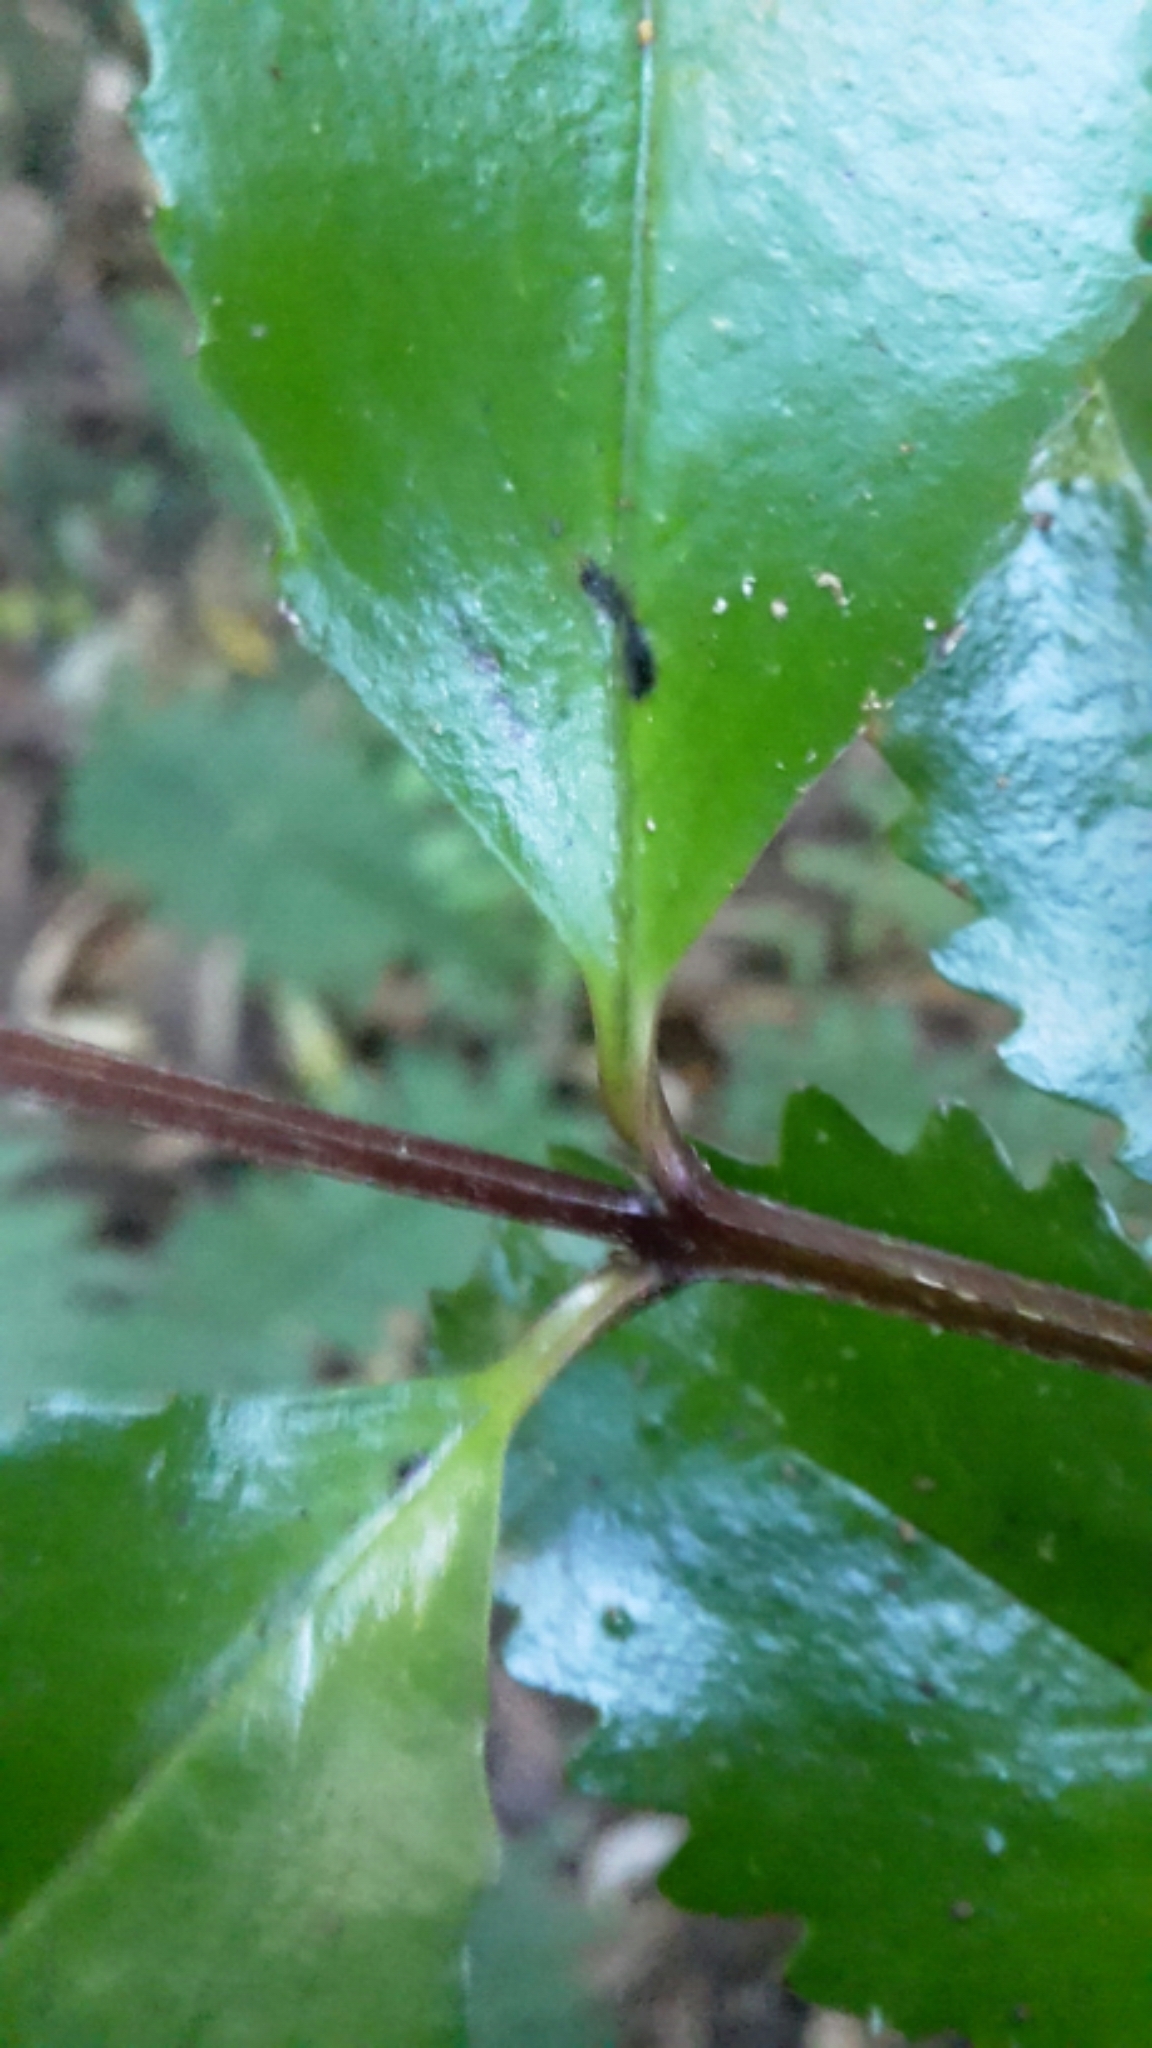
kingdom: Plantae
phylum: Tracheophyta
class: Magnoliopsida
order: Laurales
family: Atherospermataceae
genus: Laurelia
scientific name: Laurelia novae-zelandiae
